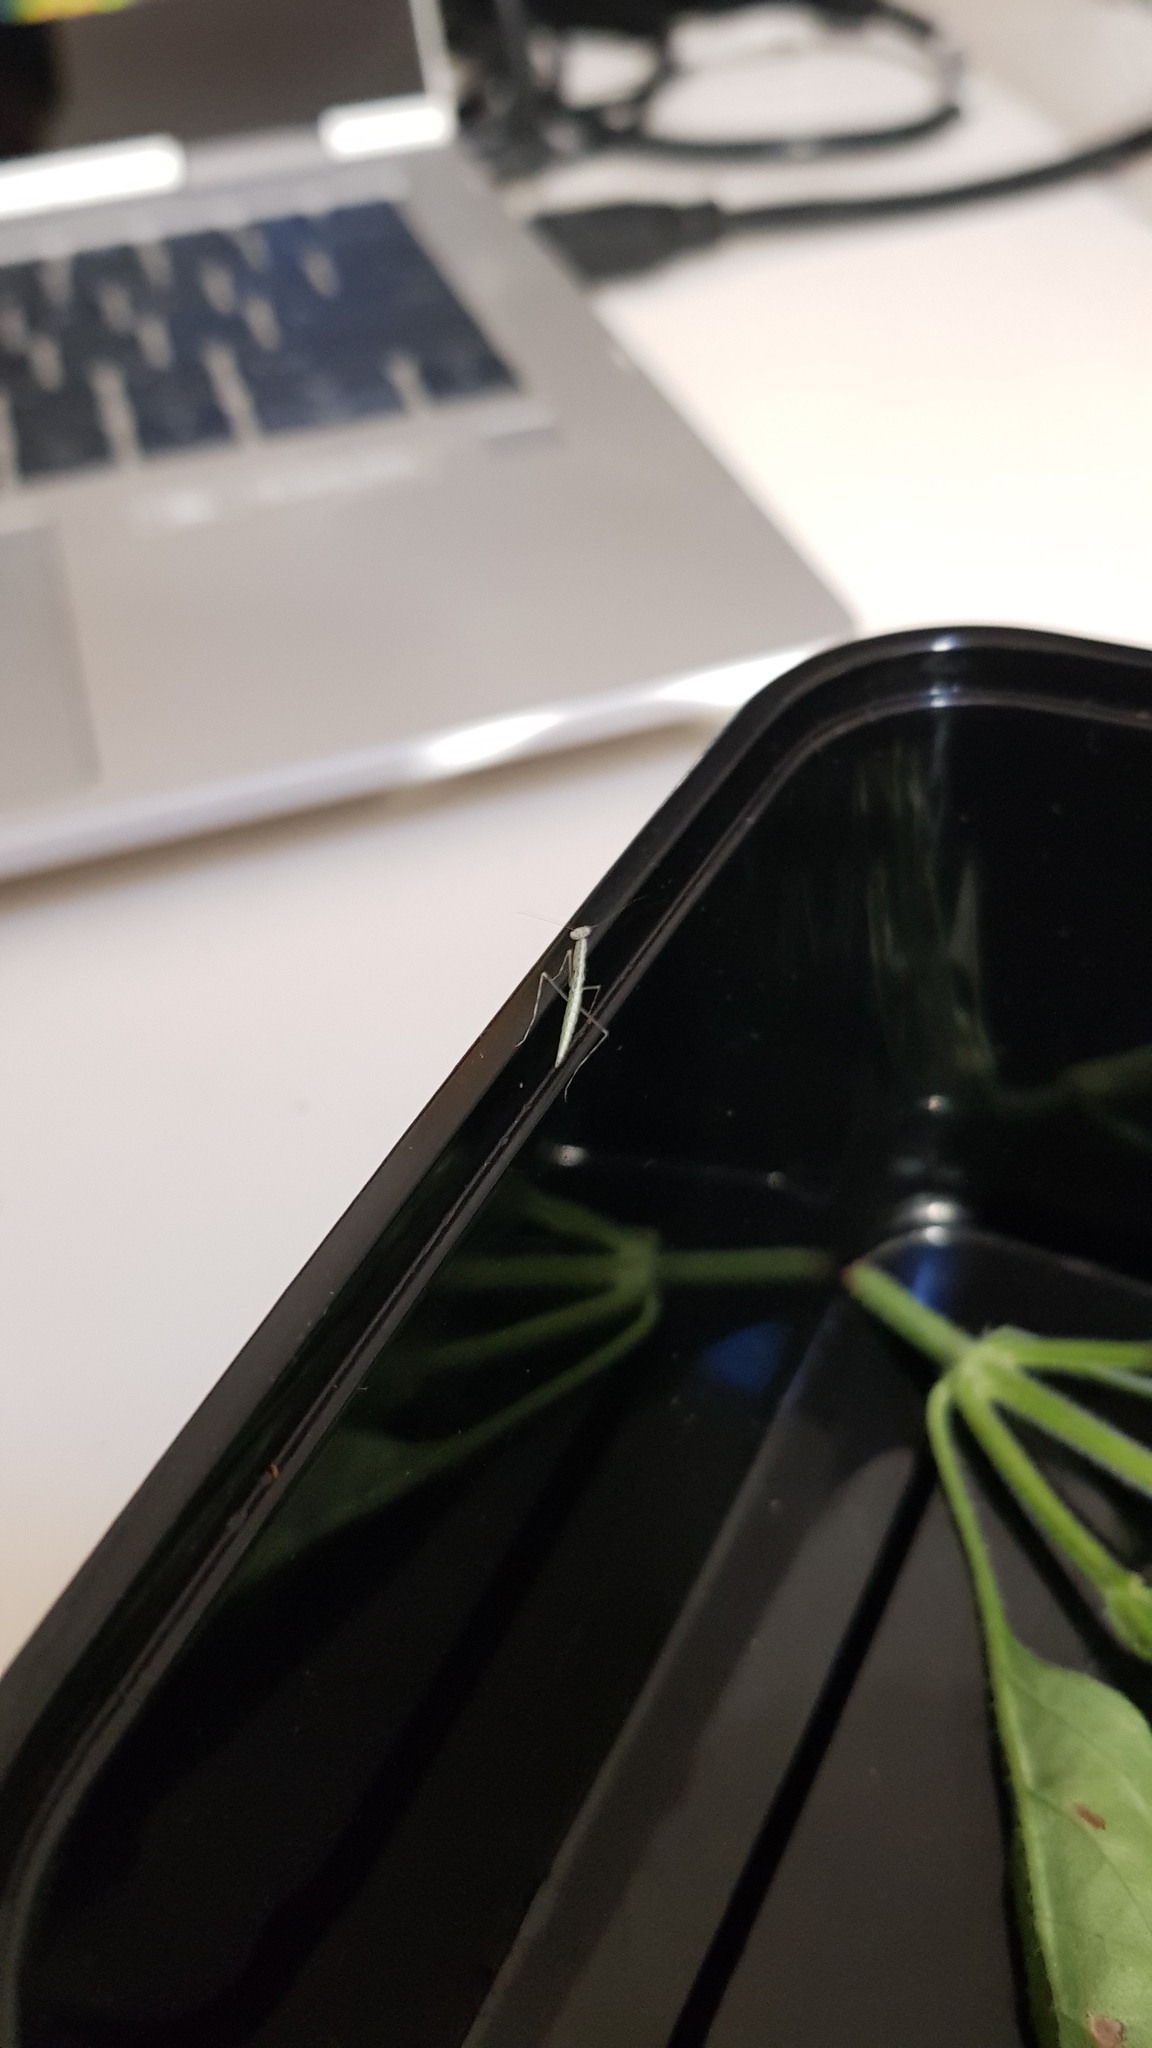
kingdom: Animalia
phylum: Arthropoda
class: Insecta
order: Mantodea
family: Nanomantidae
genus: Kongobatha
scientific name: Kongobatha diademata
